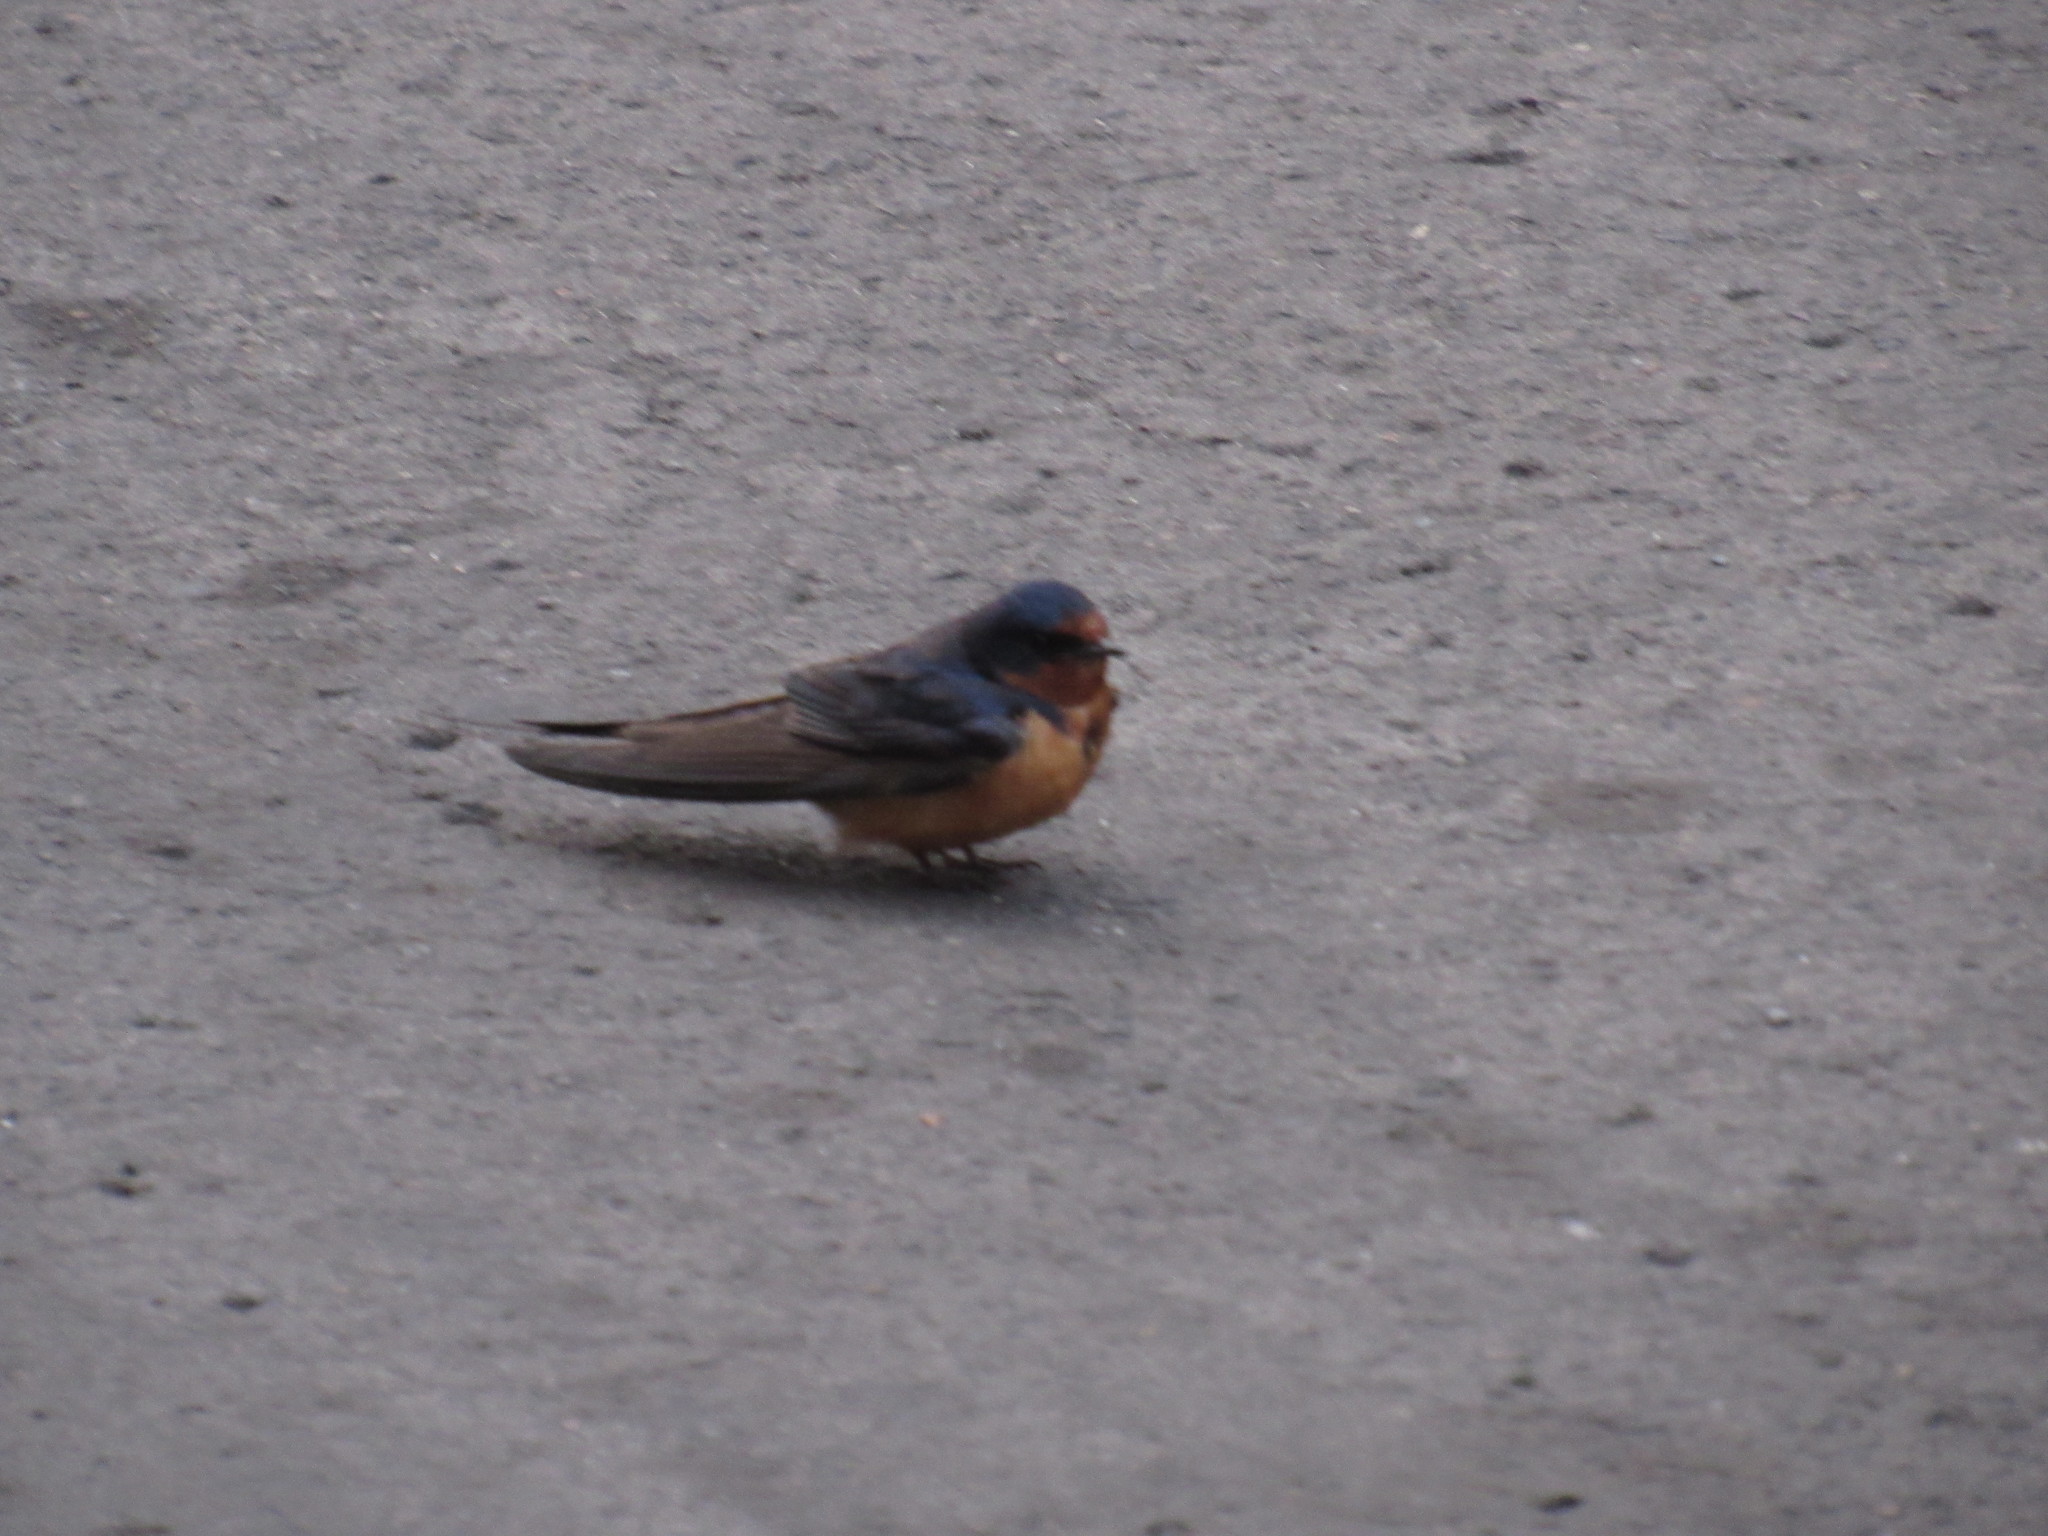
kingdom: Animalia
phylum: Chordata
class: Aves
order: Passeriformes
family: Hirundinidae
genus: Hirundo
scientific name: Hirundo rustica
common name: Barn swallow
